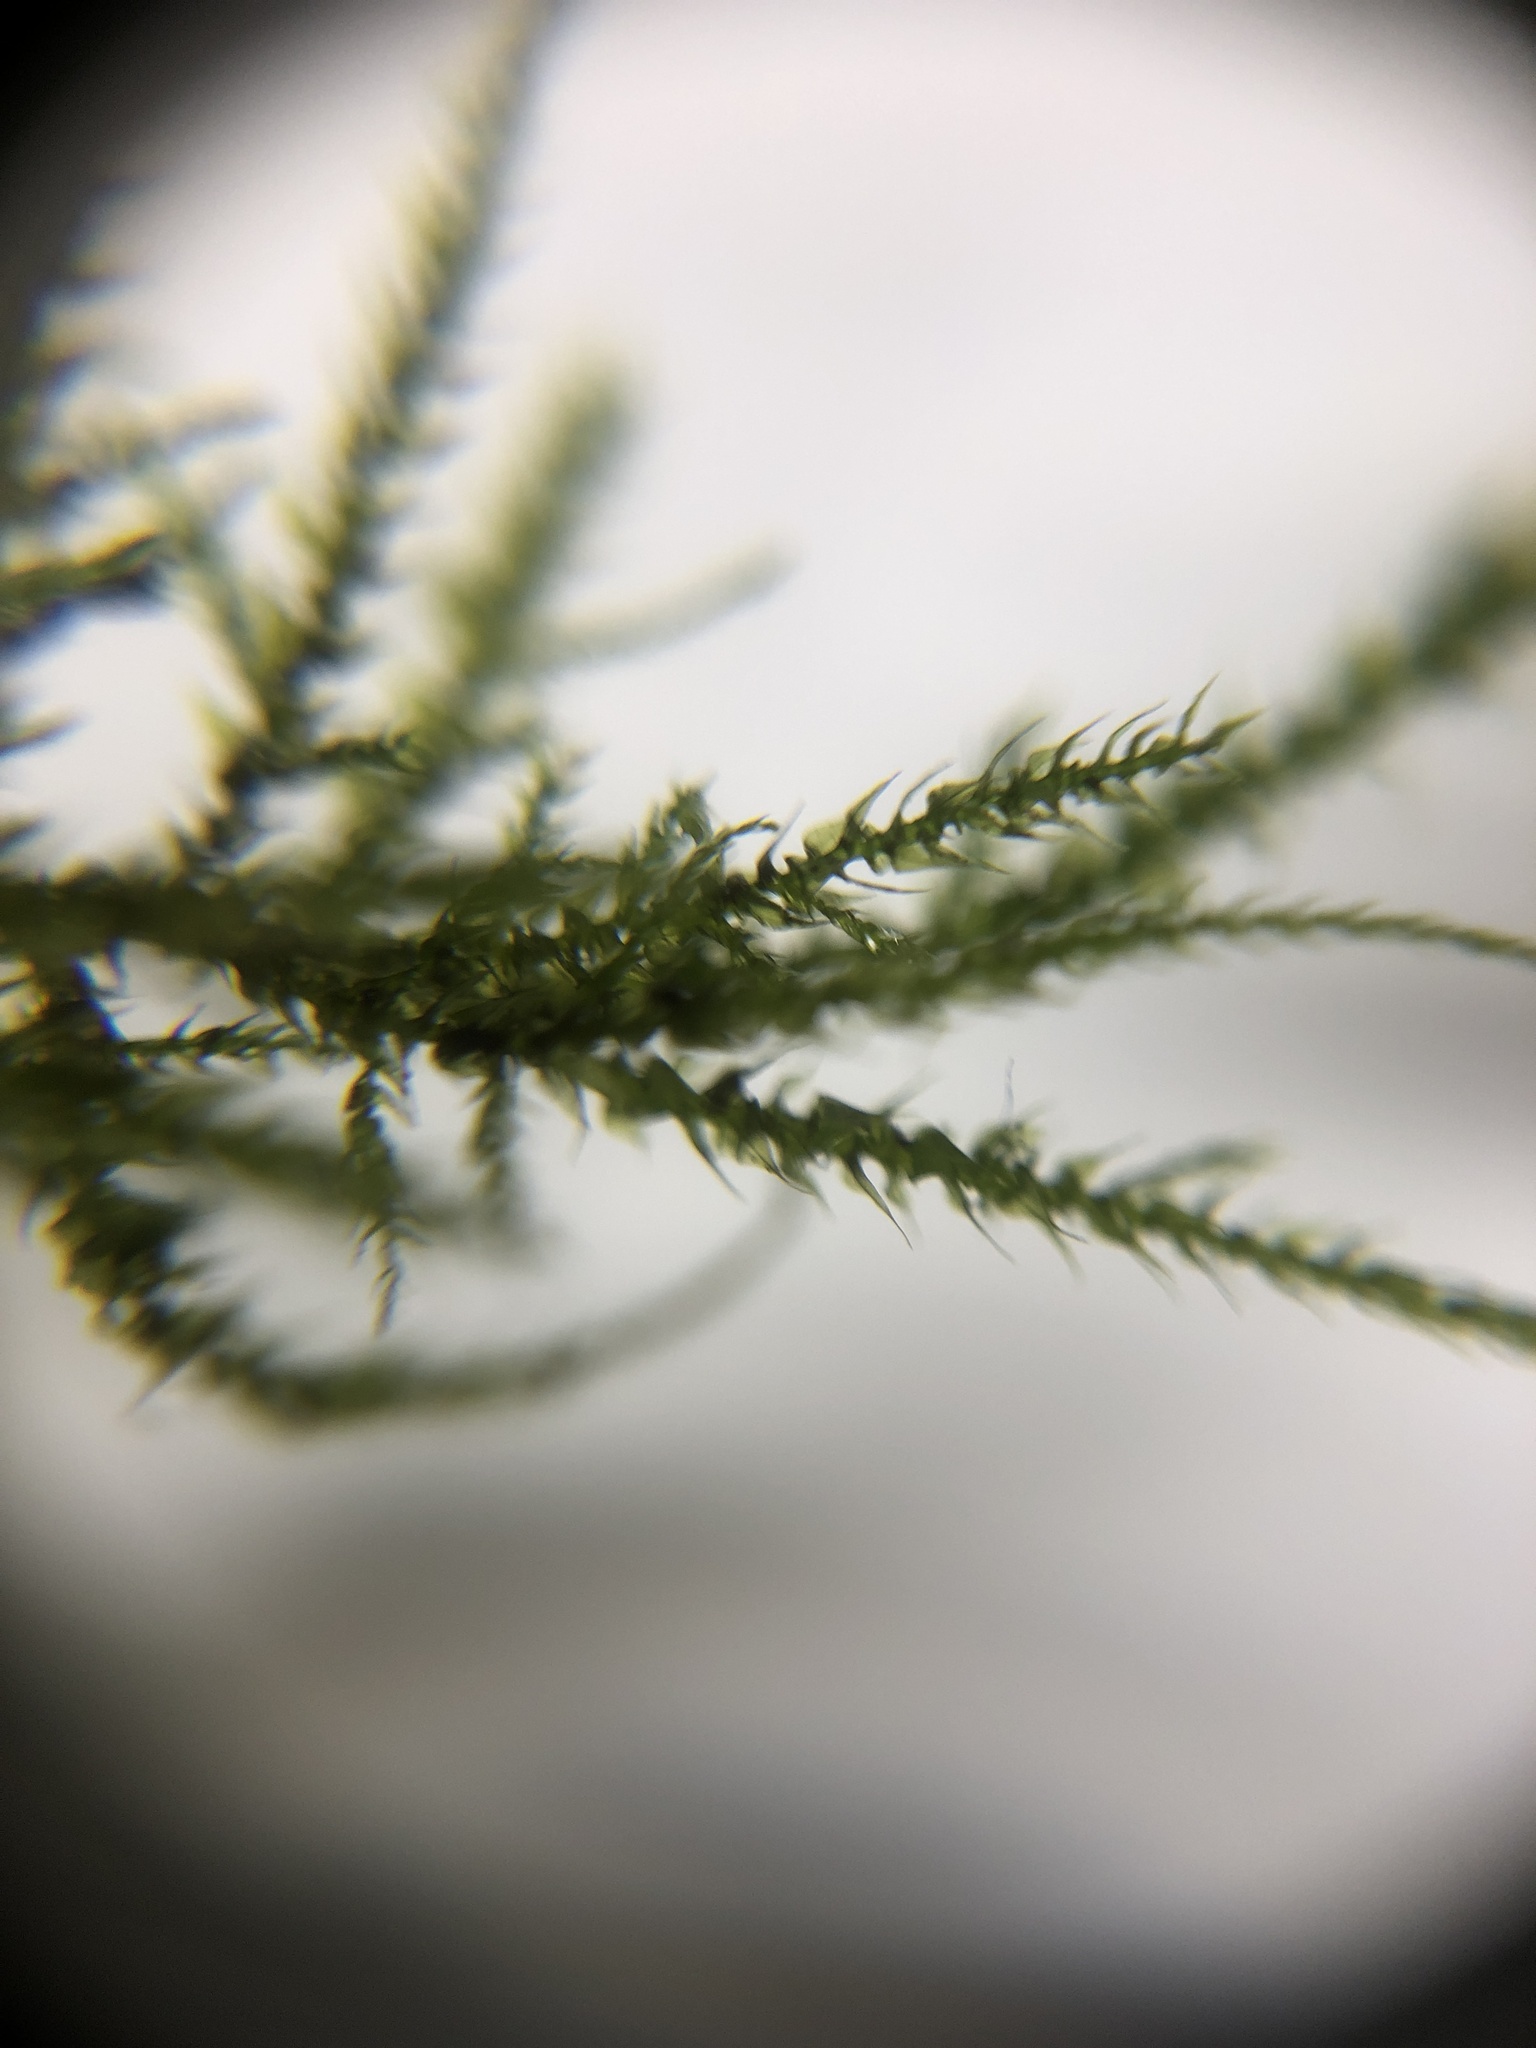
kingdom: Plantae
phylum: Bryophyta
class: Bryopsida
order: Hypnales
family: Brachytheciaceae
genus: Kindbergia
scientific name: Kindbergia praelonga
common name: Slender beaked moss
